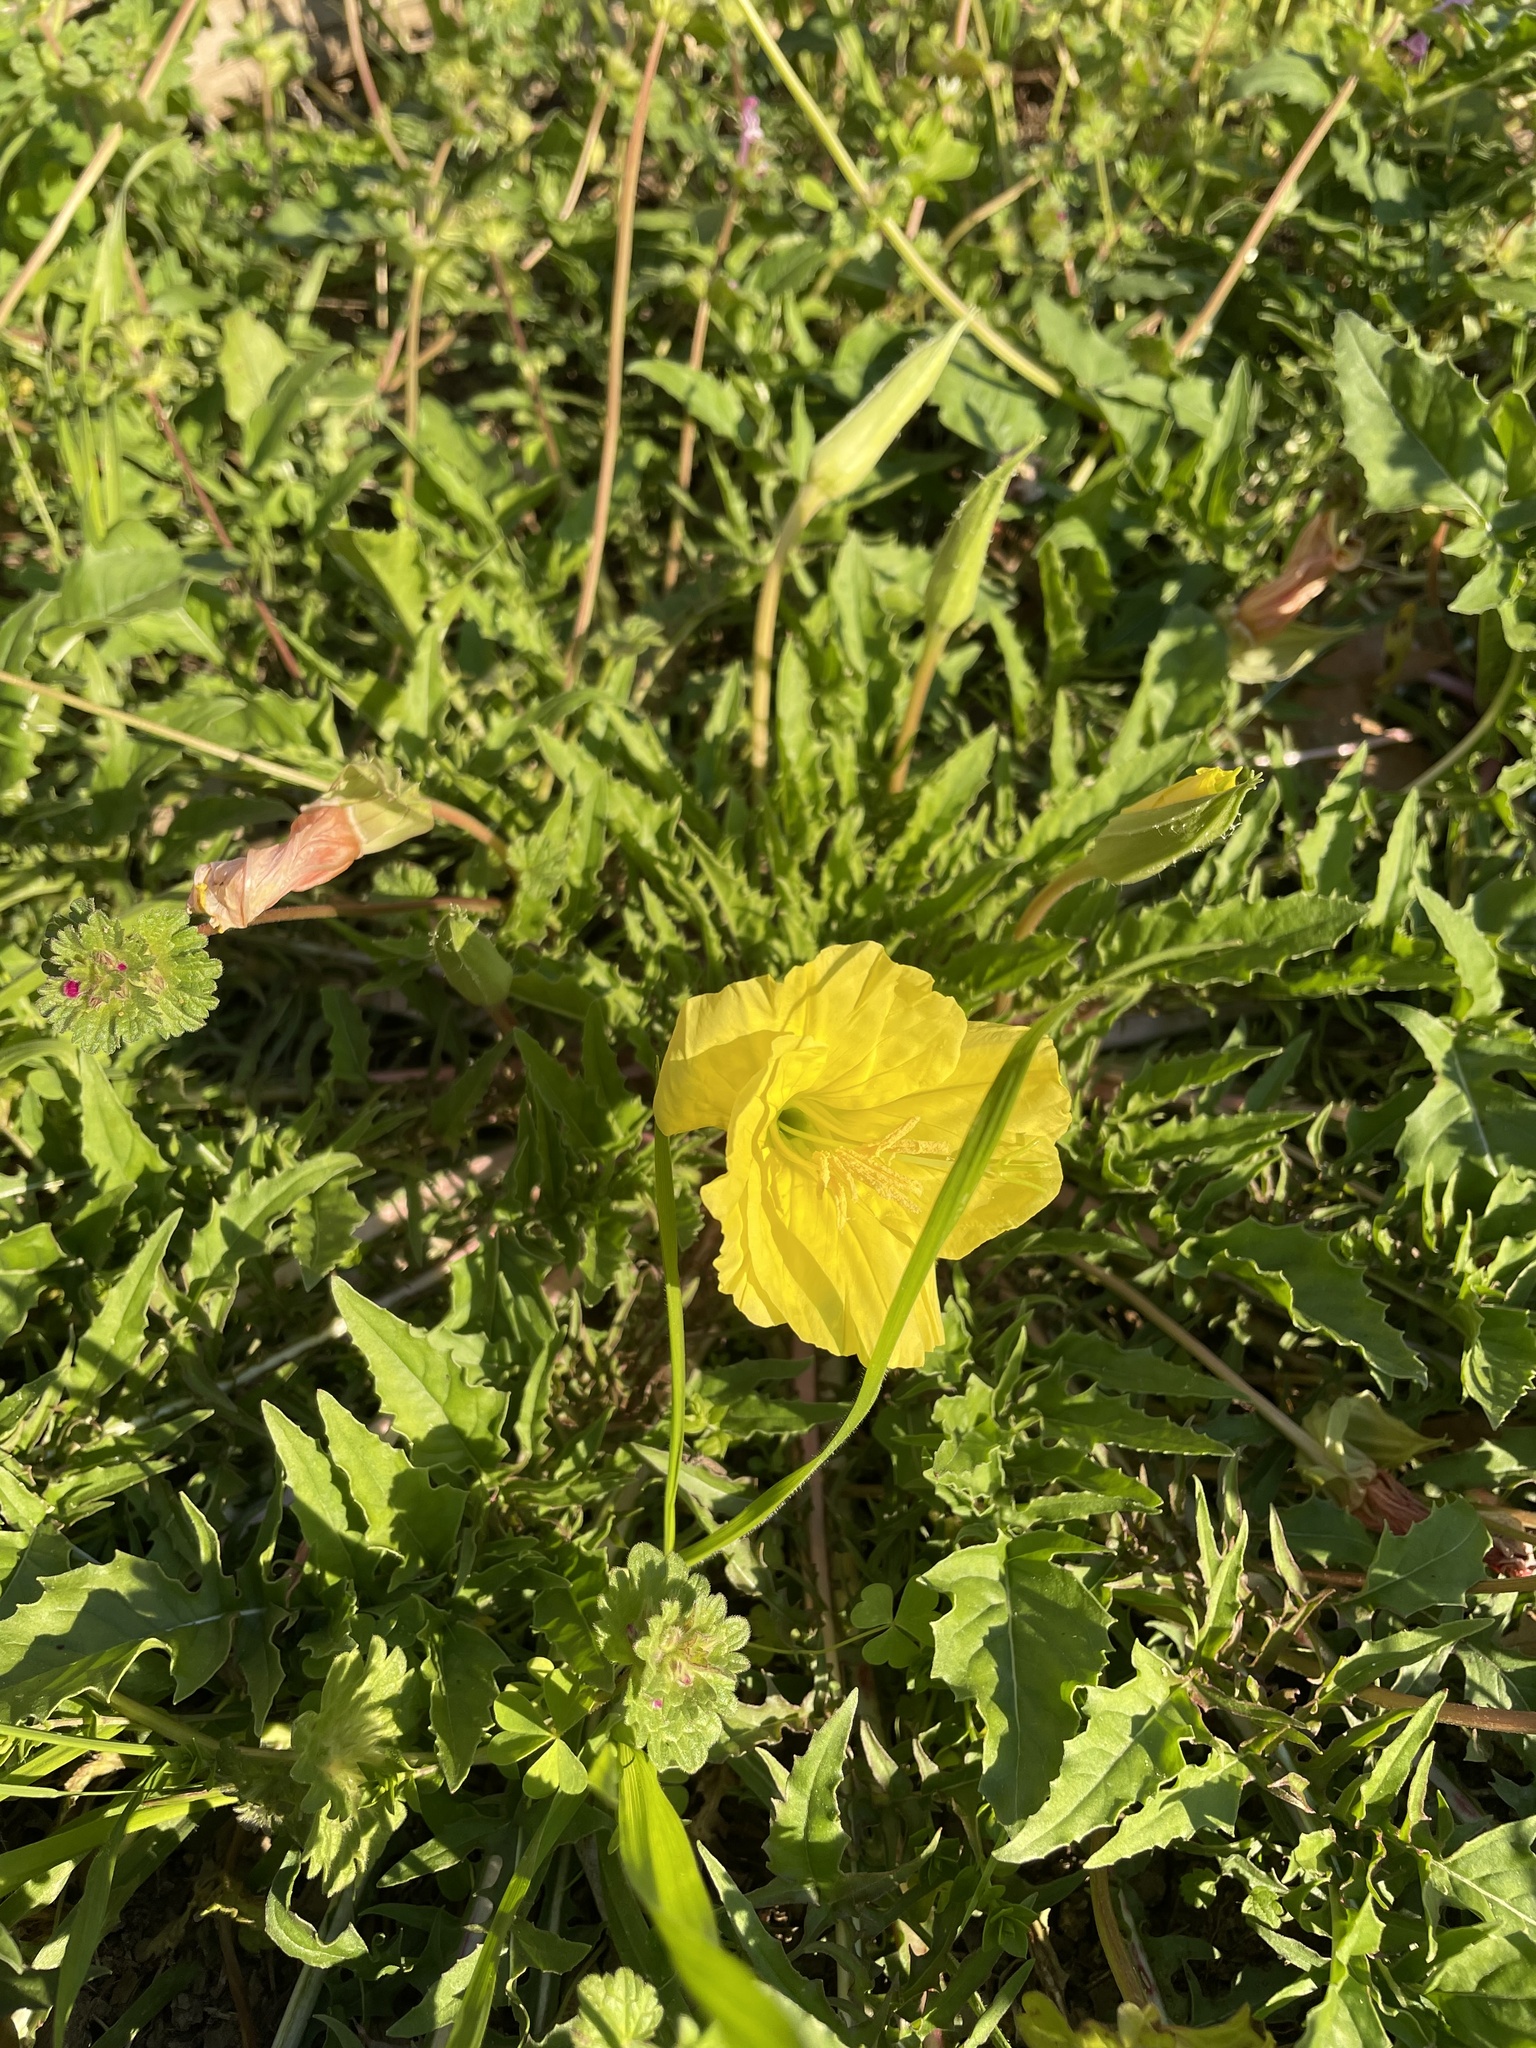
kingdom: Plantae
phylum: Tracheophyta
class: Magnoliopsida
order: Myrtales
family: Onagraceae
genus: Oenothera
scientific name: Oenothera triloba
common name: Sessile evening-primrose
